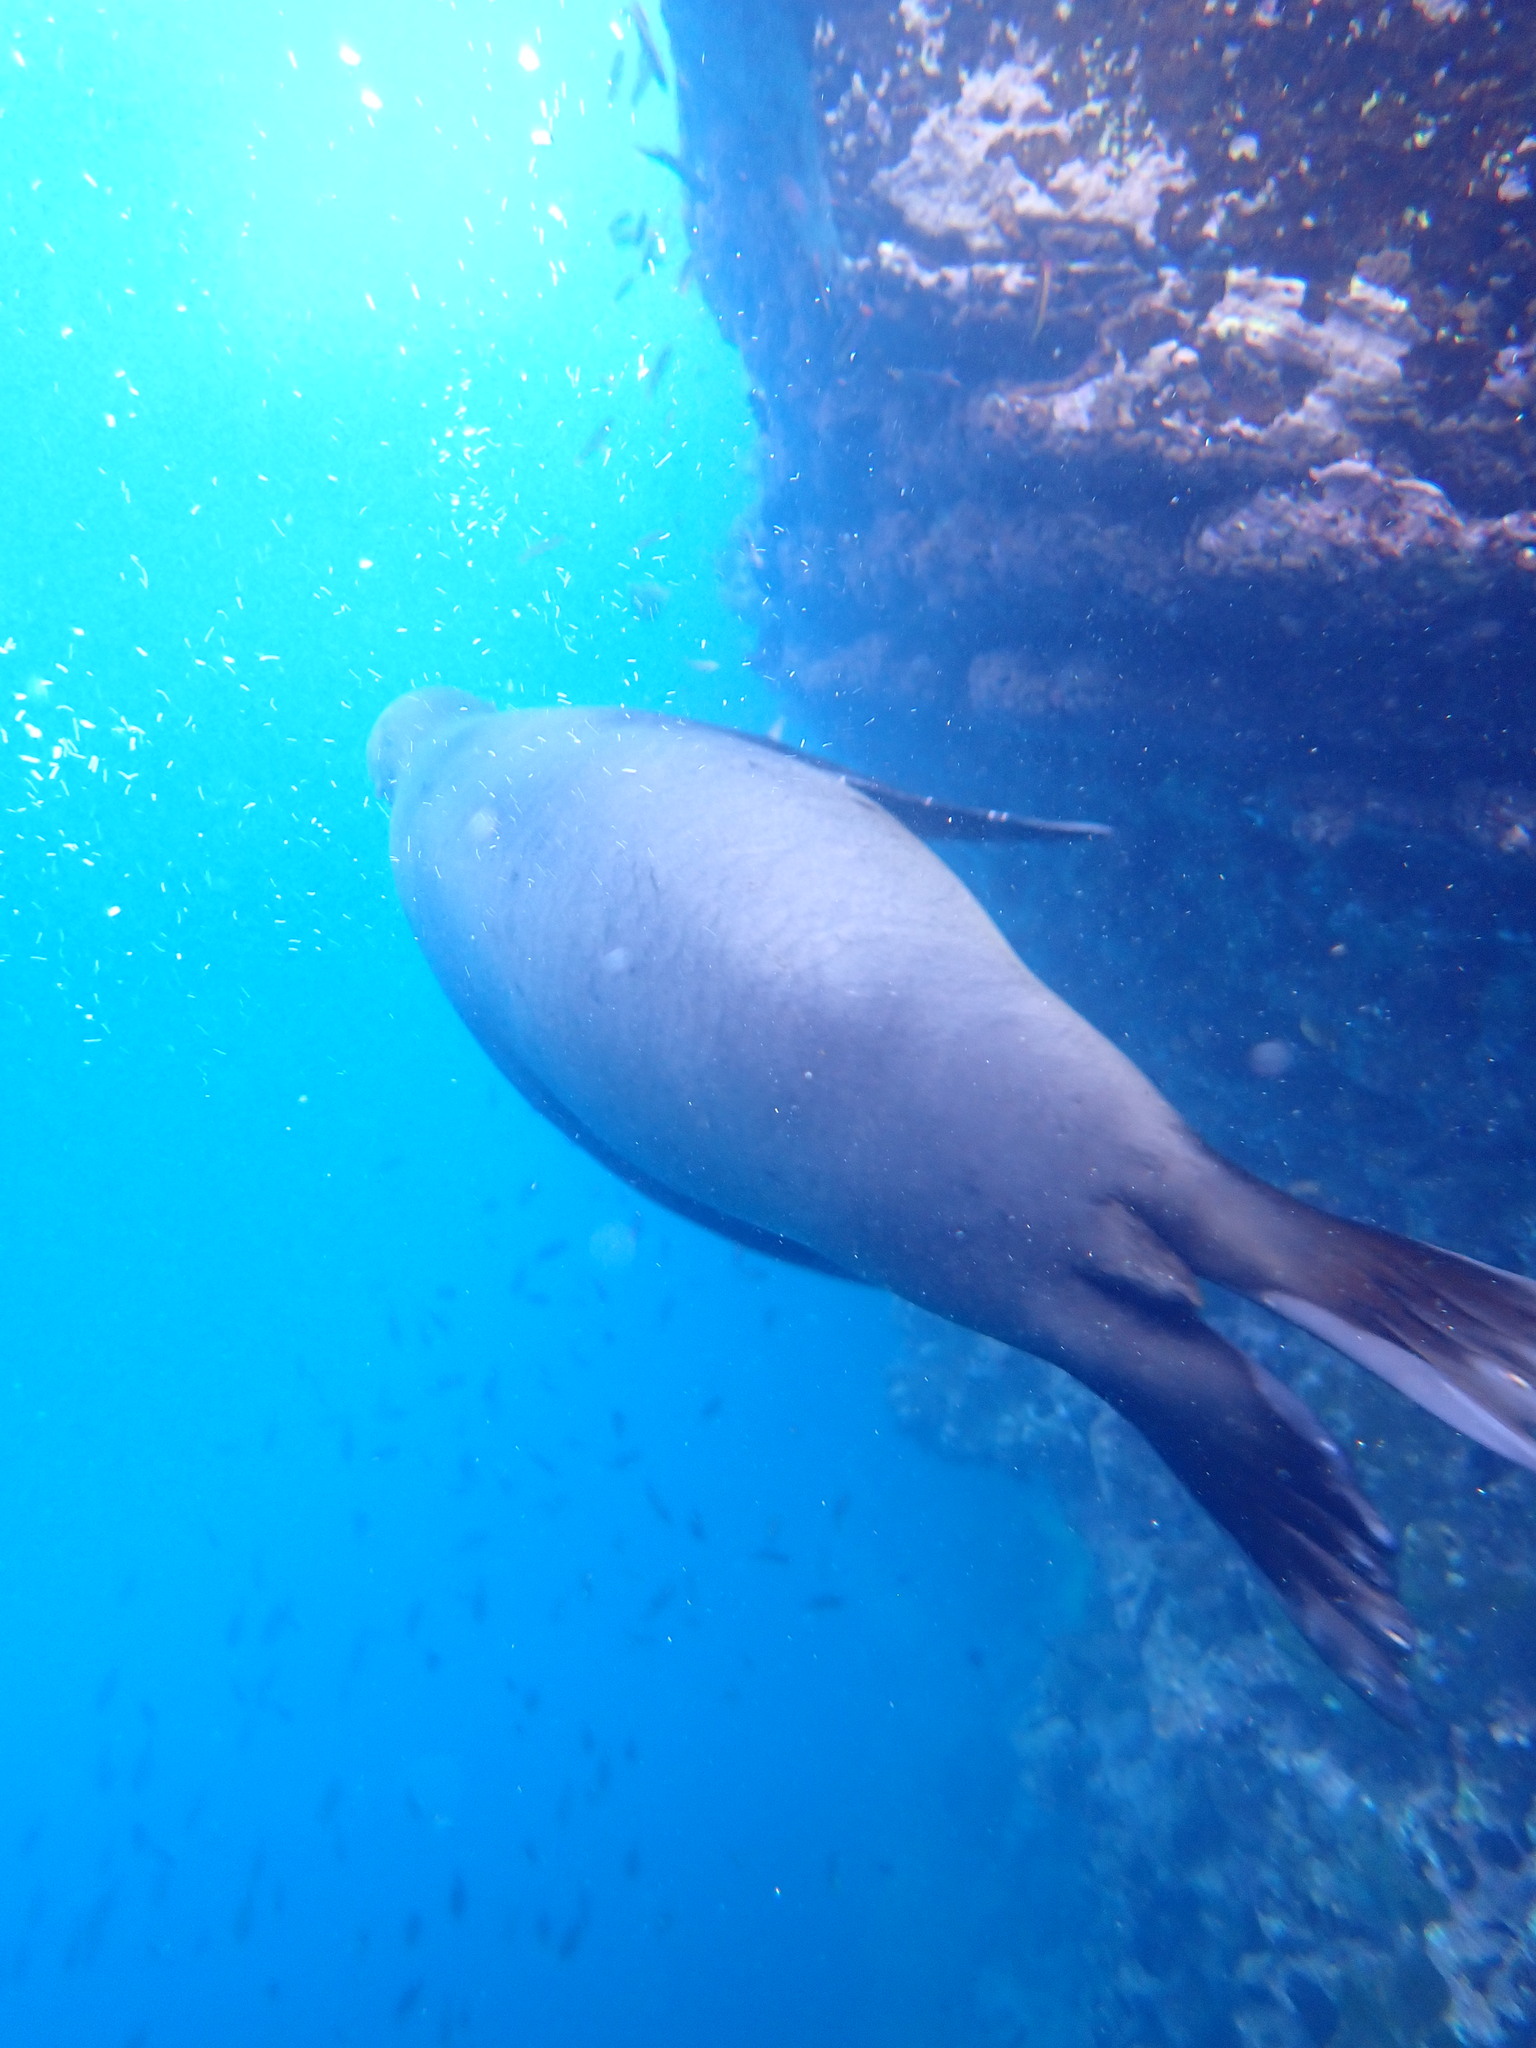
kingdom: Animalia
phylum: Chordata
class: Mammalia
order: Carnivora
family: Otariidae
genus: Zalophus
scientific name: Zalophus wollebaeki
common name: Galapagos sea lion
